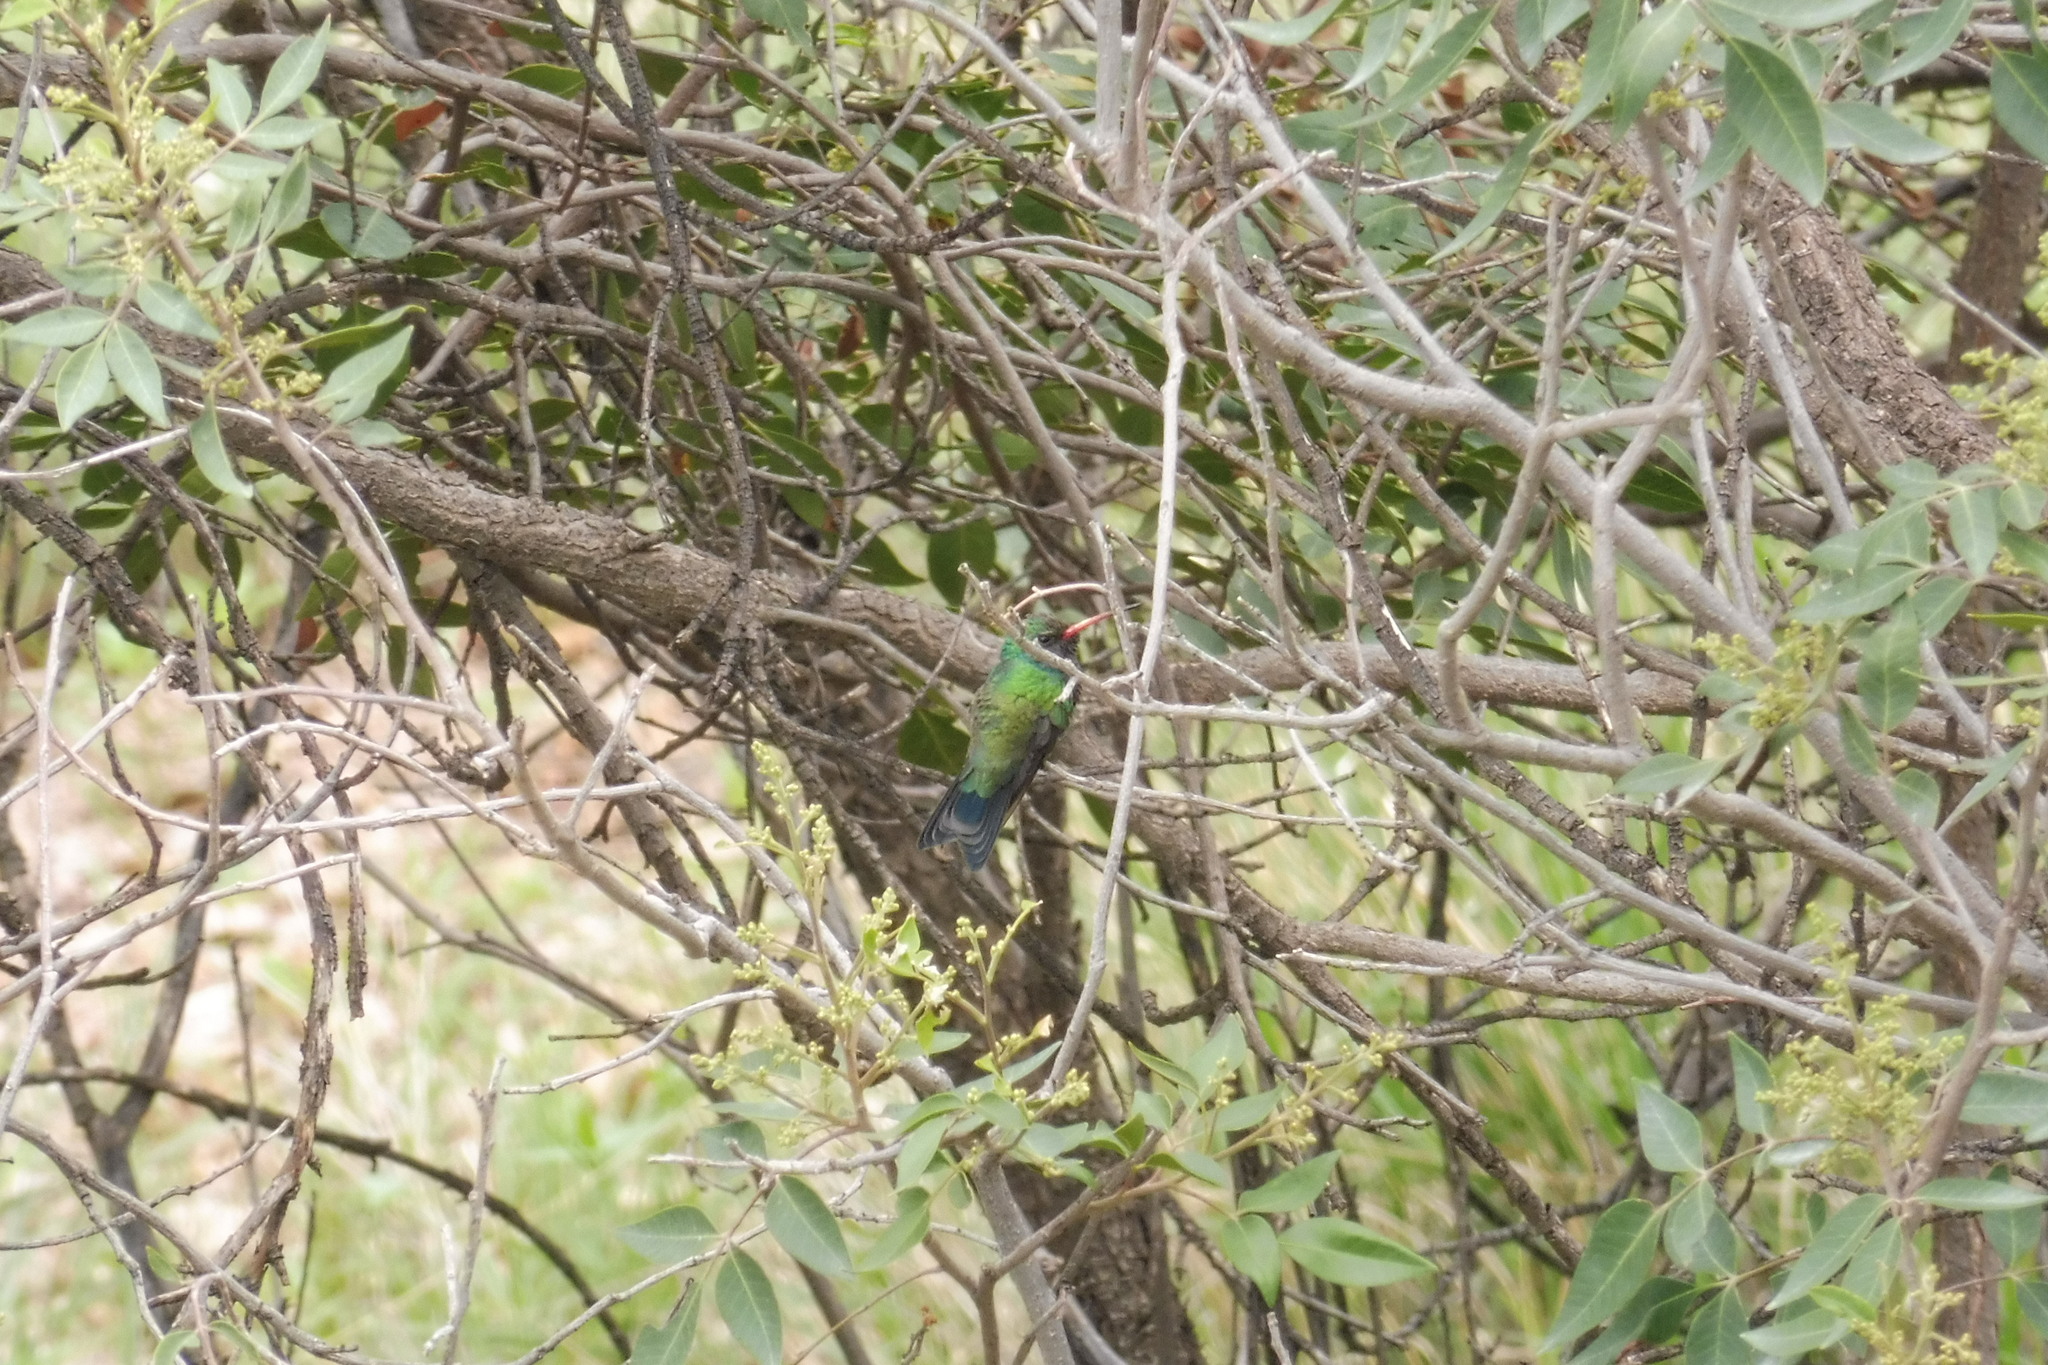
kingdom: Animalia
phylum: Chordata
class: Aves
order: Apodiformes
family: Trochilidae
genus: Cynanthus
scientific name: Cynanthus latirostris
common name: Broad-billed hummingbird
